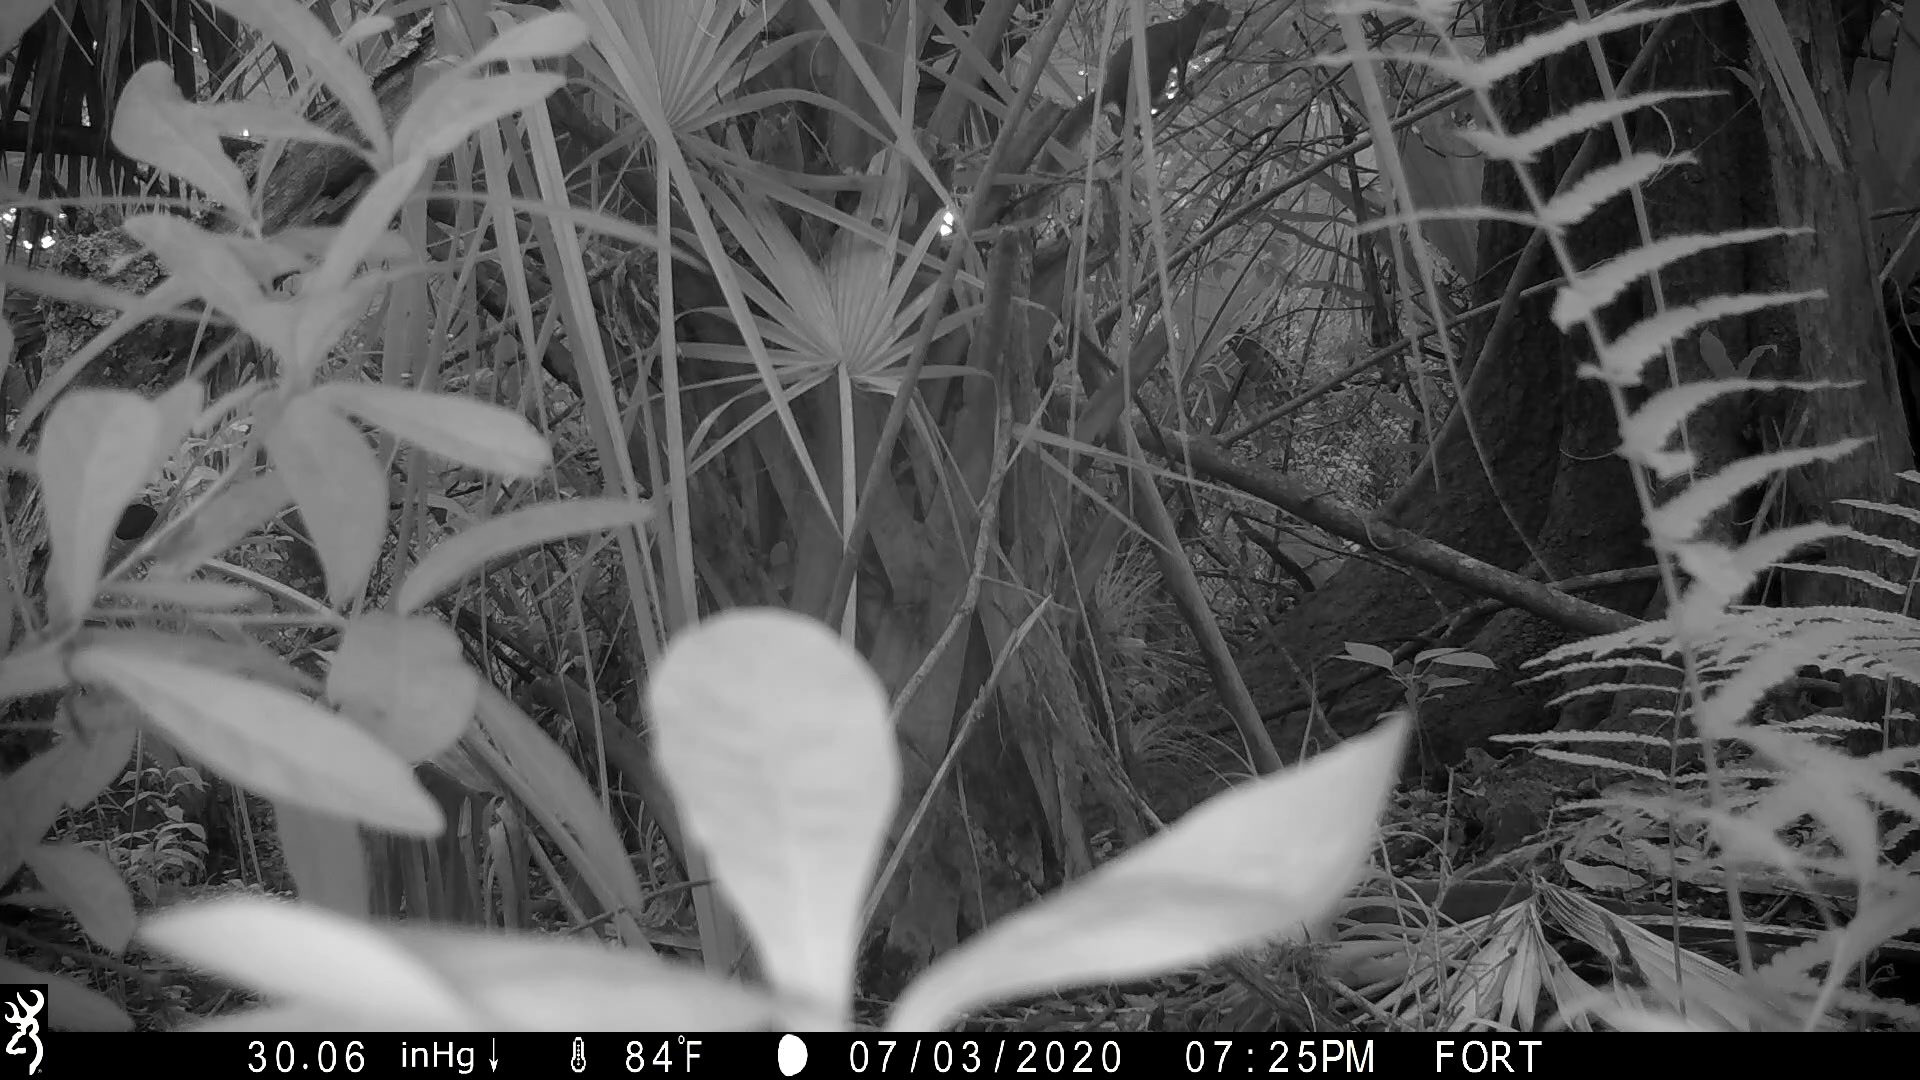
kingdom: Animalia
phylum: Chordata
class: Mammalia
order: Rodentia
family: Sciuridae
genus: Sciurus
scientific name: Sciurus carolinensis
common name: Eastern gray squirrel
